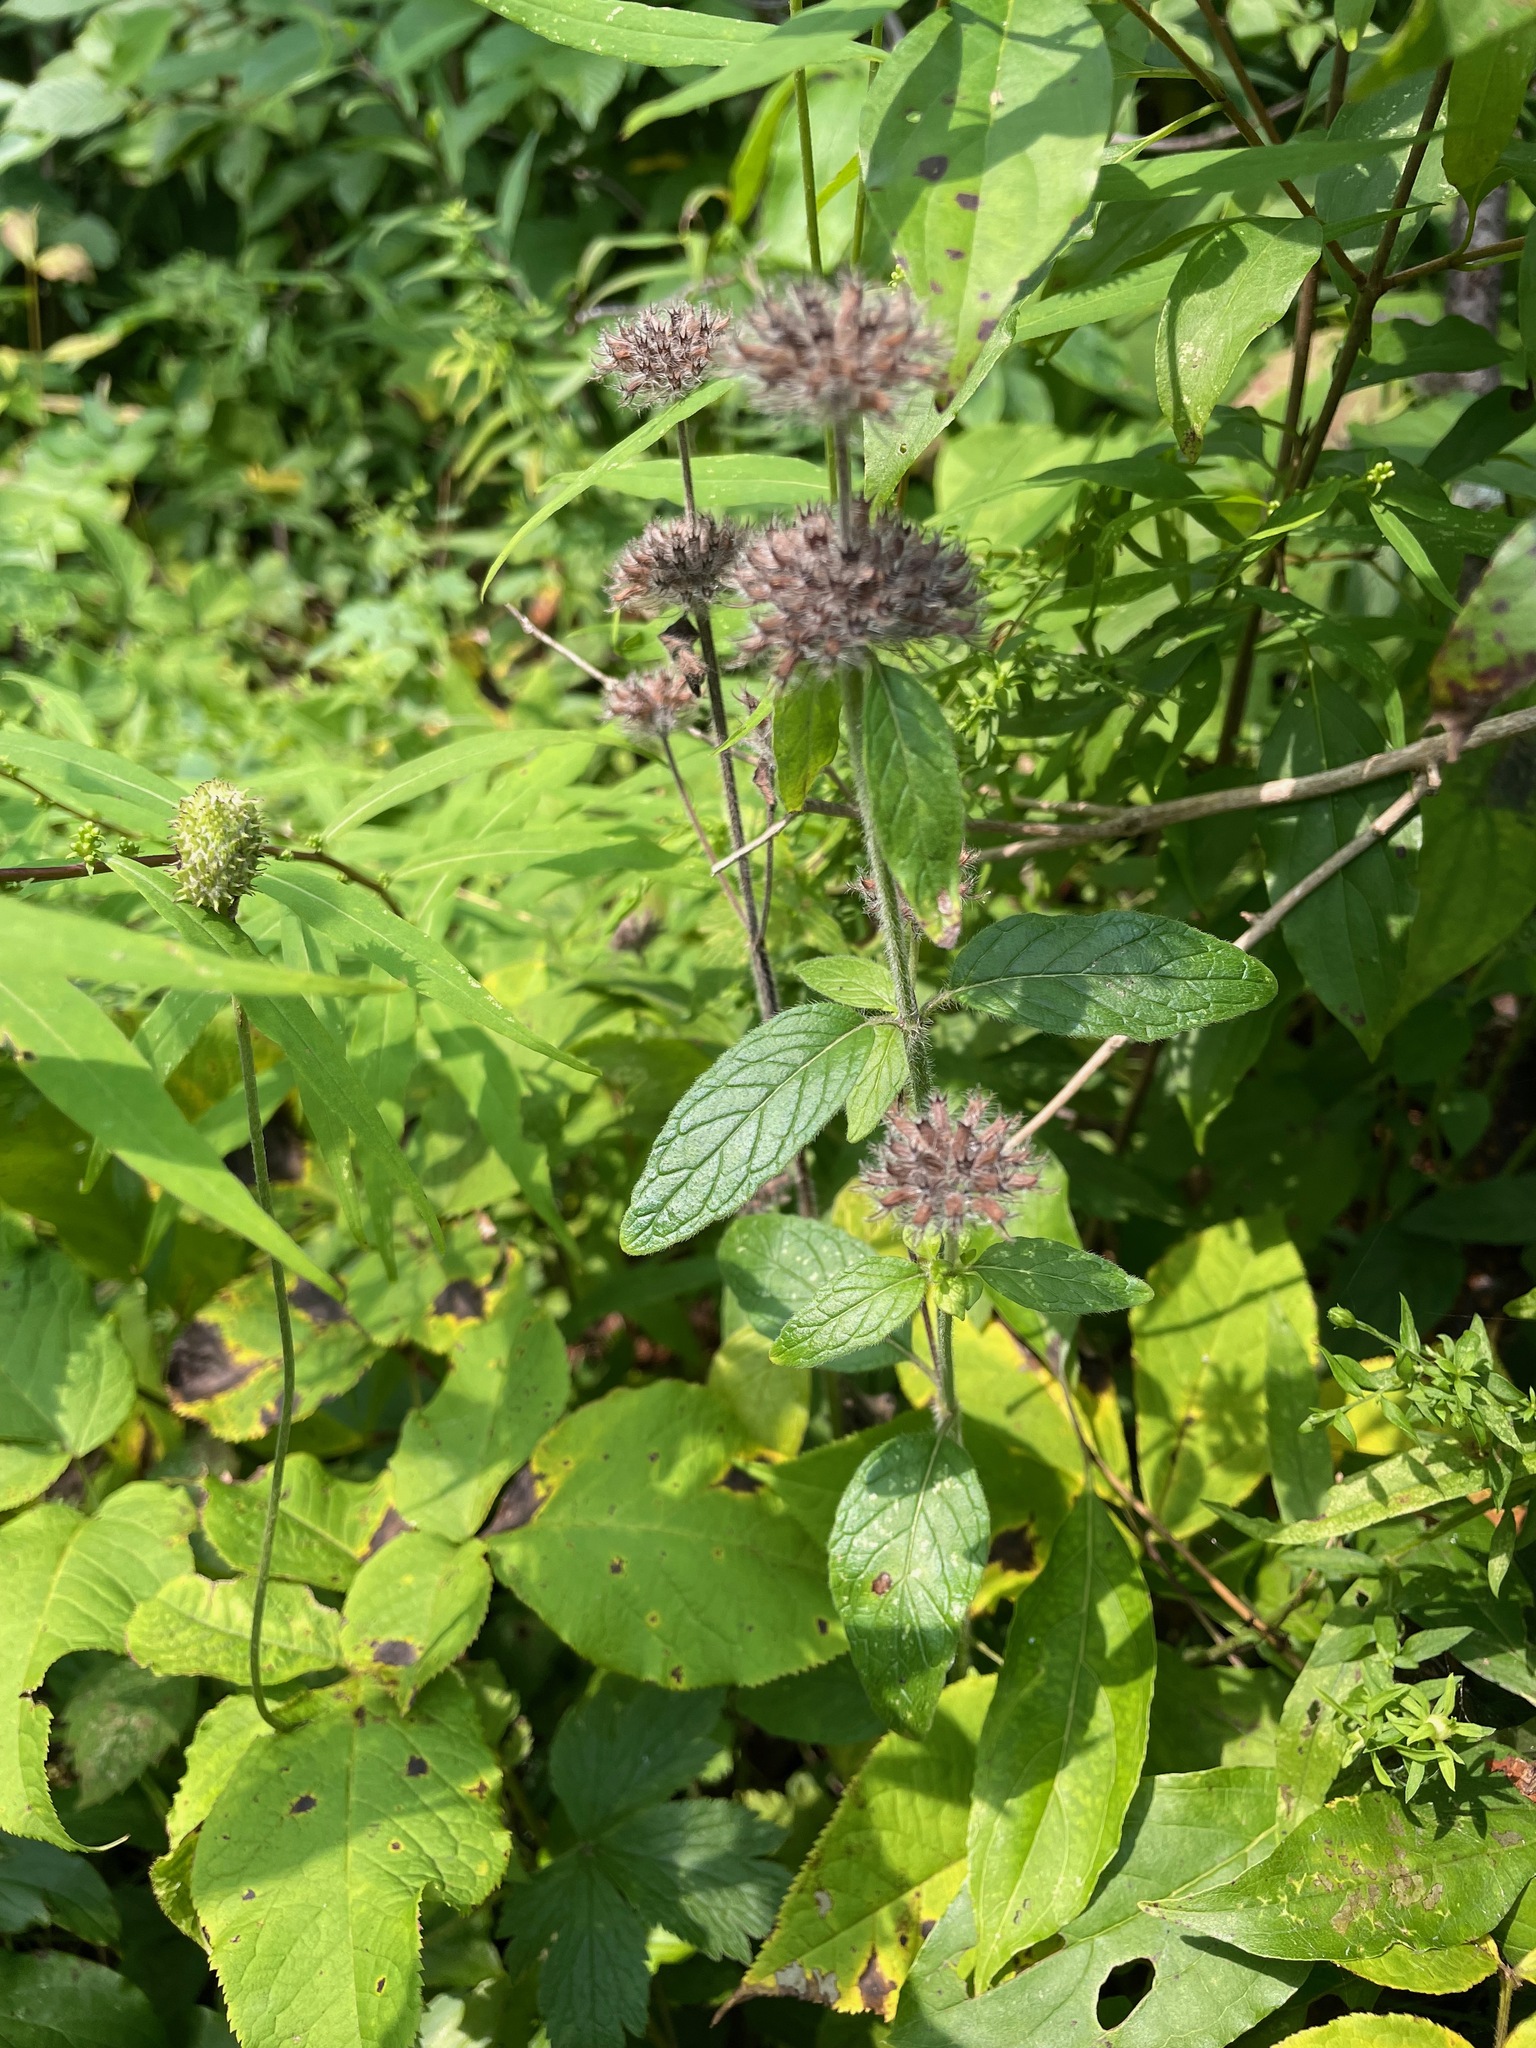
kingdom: Plantae
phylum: Tracheophyta
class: Magnoliopsida
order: Lamiales
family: Lamiaceae
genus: Clinopodium
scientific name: Clinopodium vulgare
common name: Wild basil
